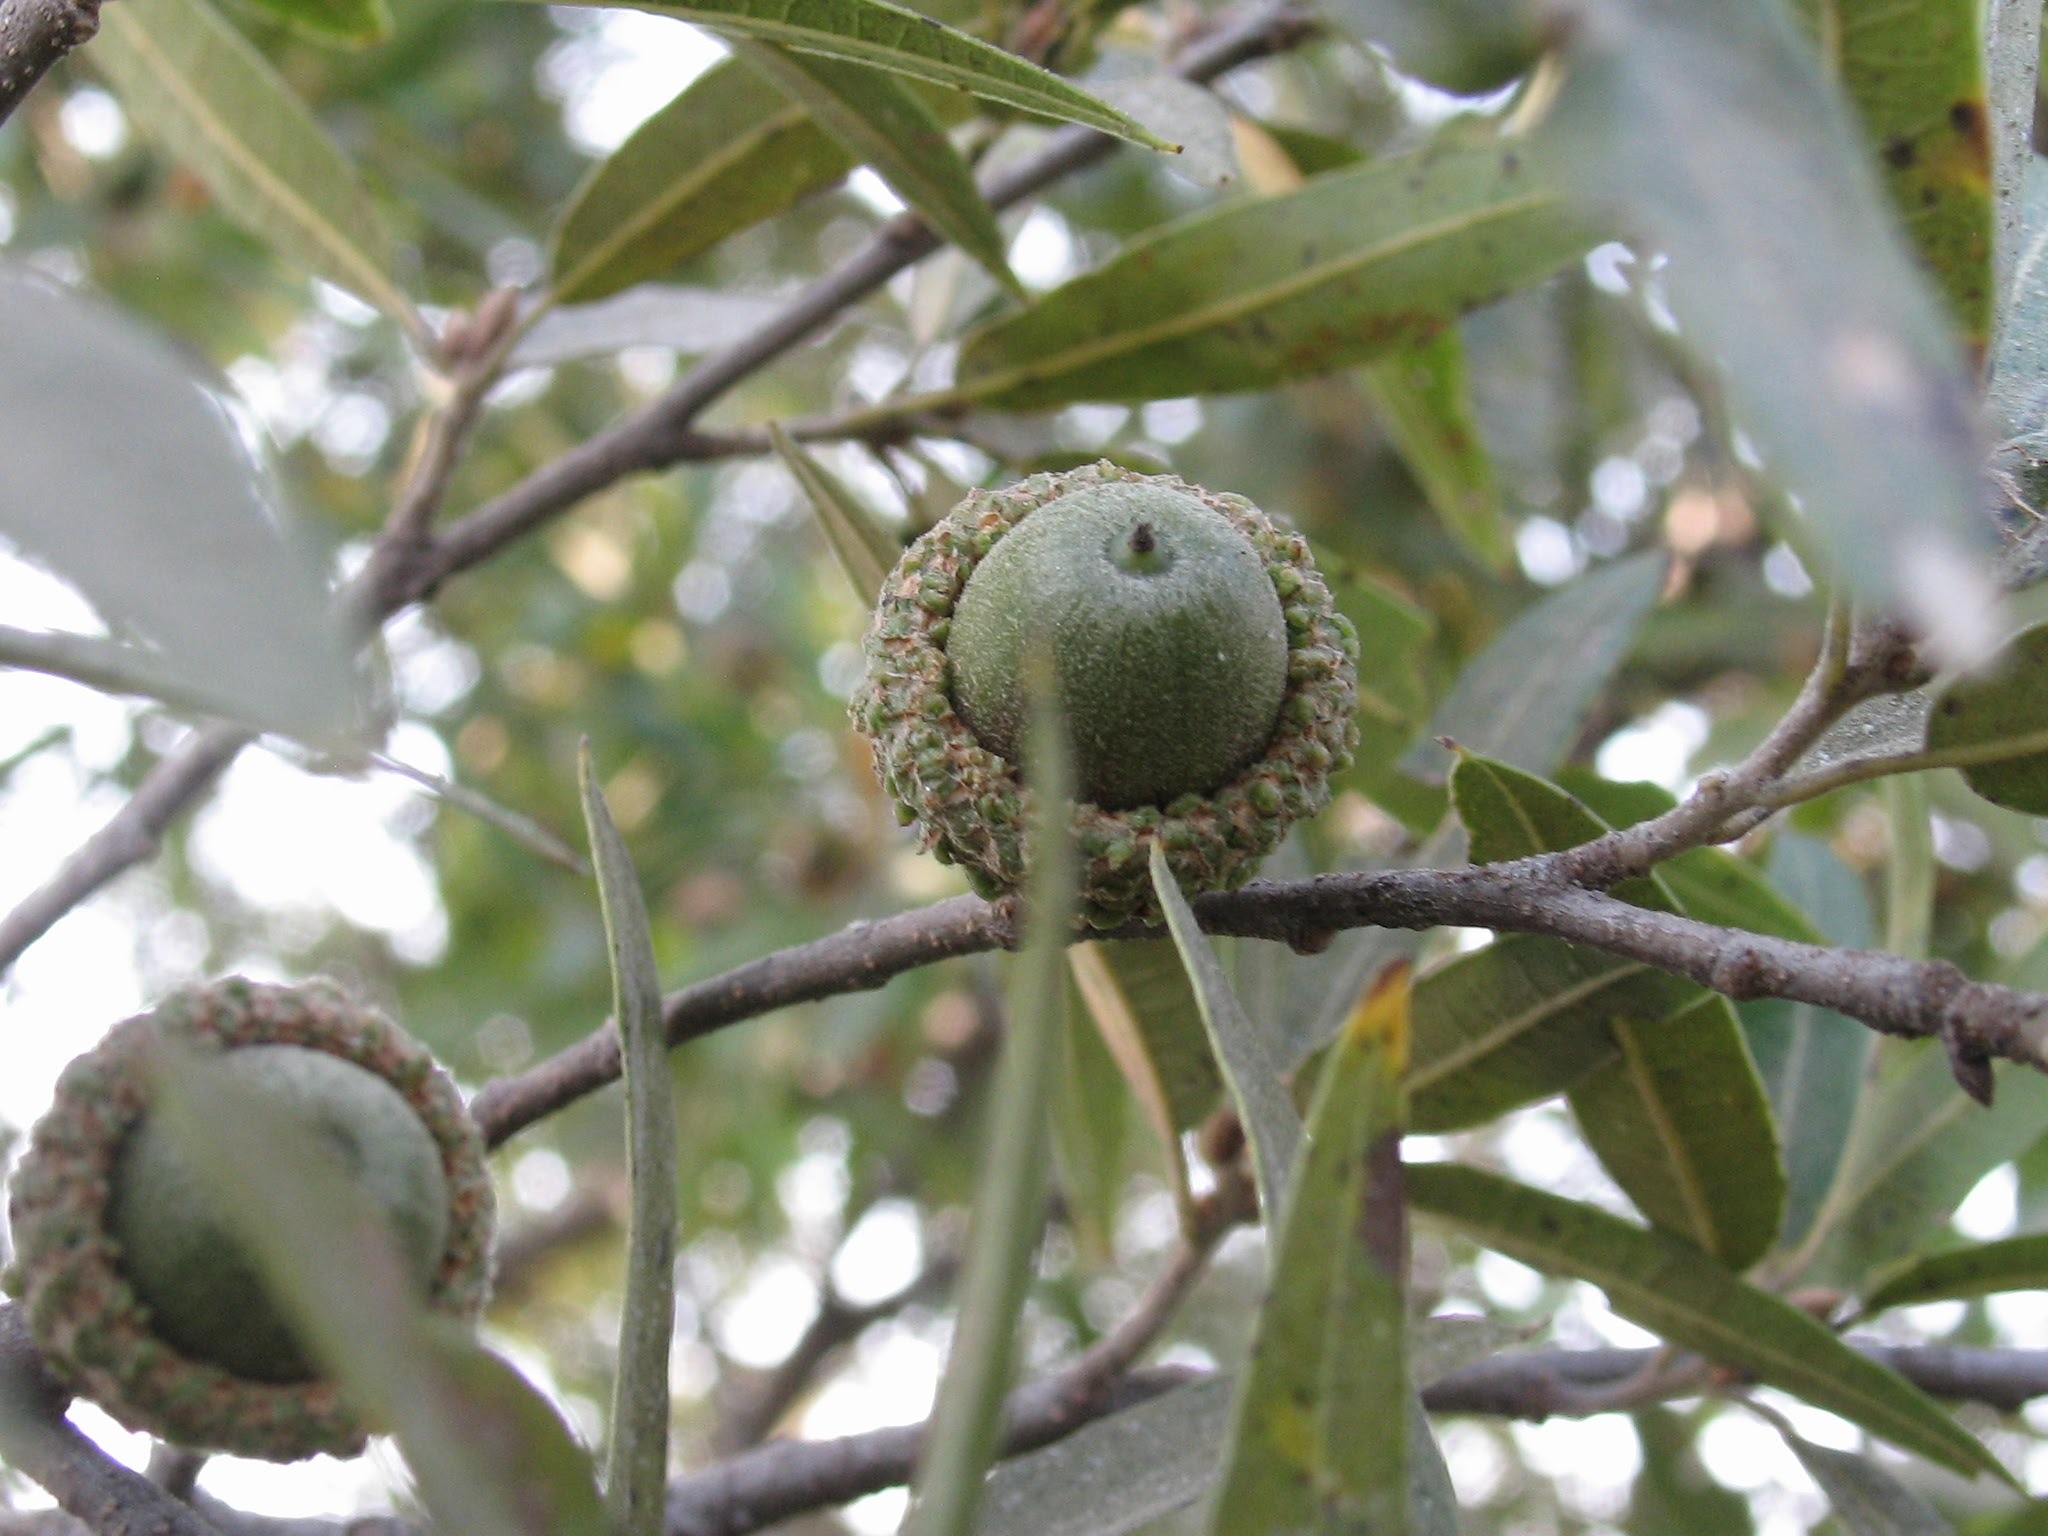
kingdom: Plantae
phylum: Tracheophyta
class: Magnoliopsida
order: Fagales
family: Fagaceae
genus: Quercus
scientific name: Quercus confertifolia
